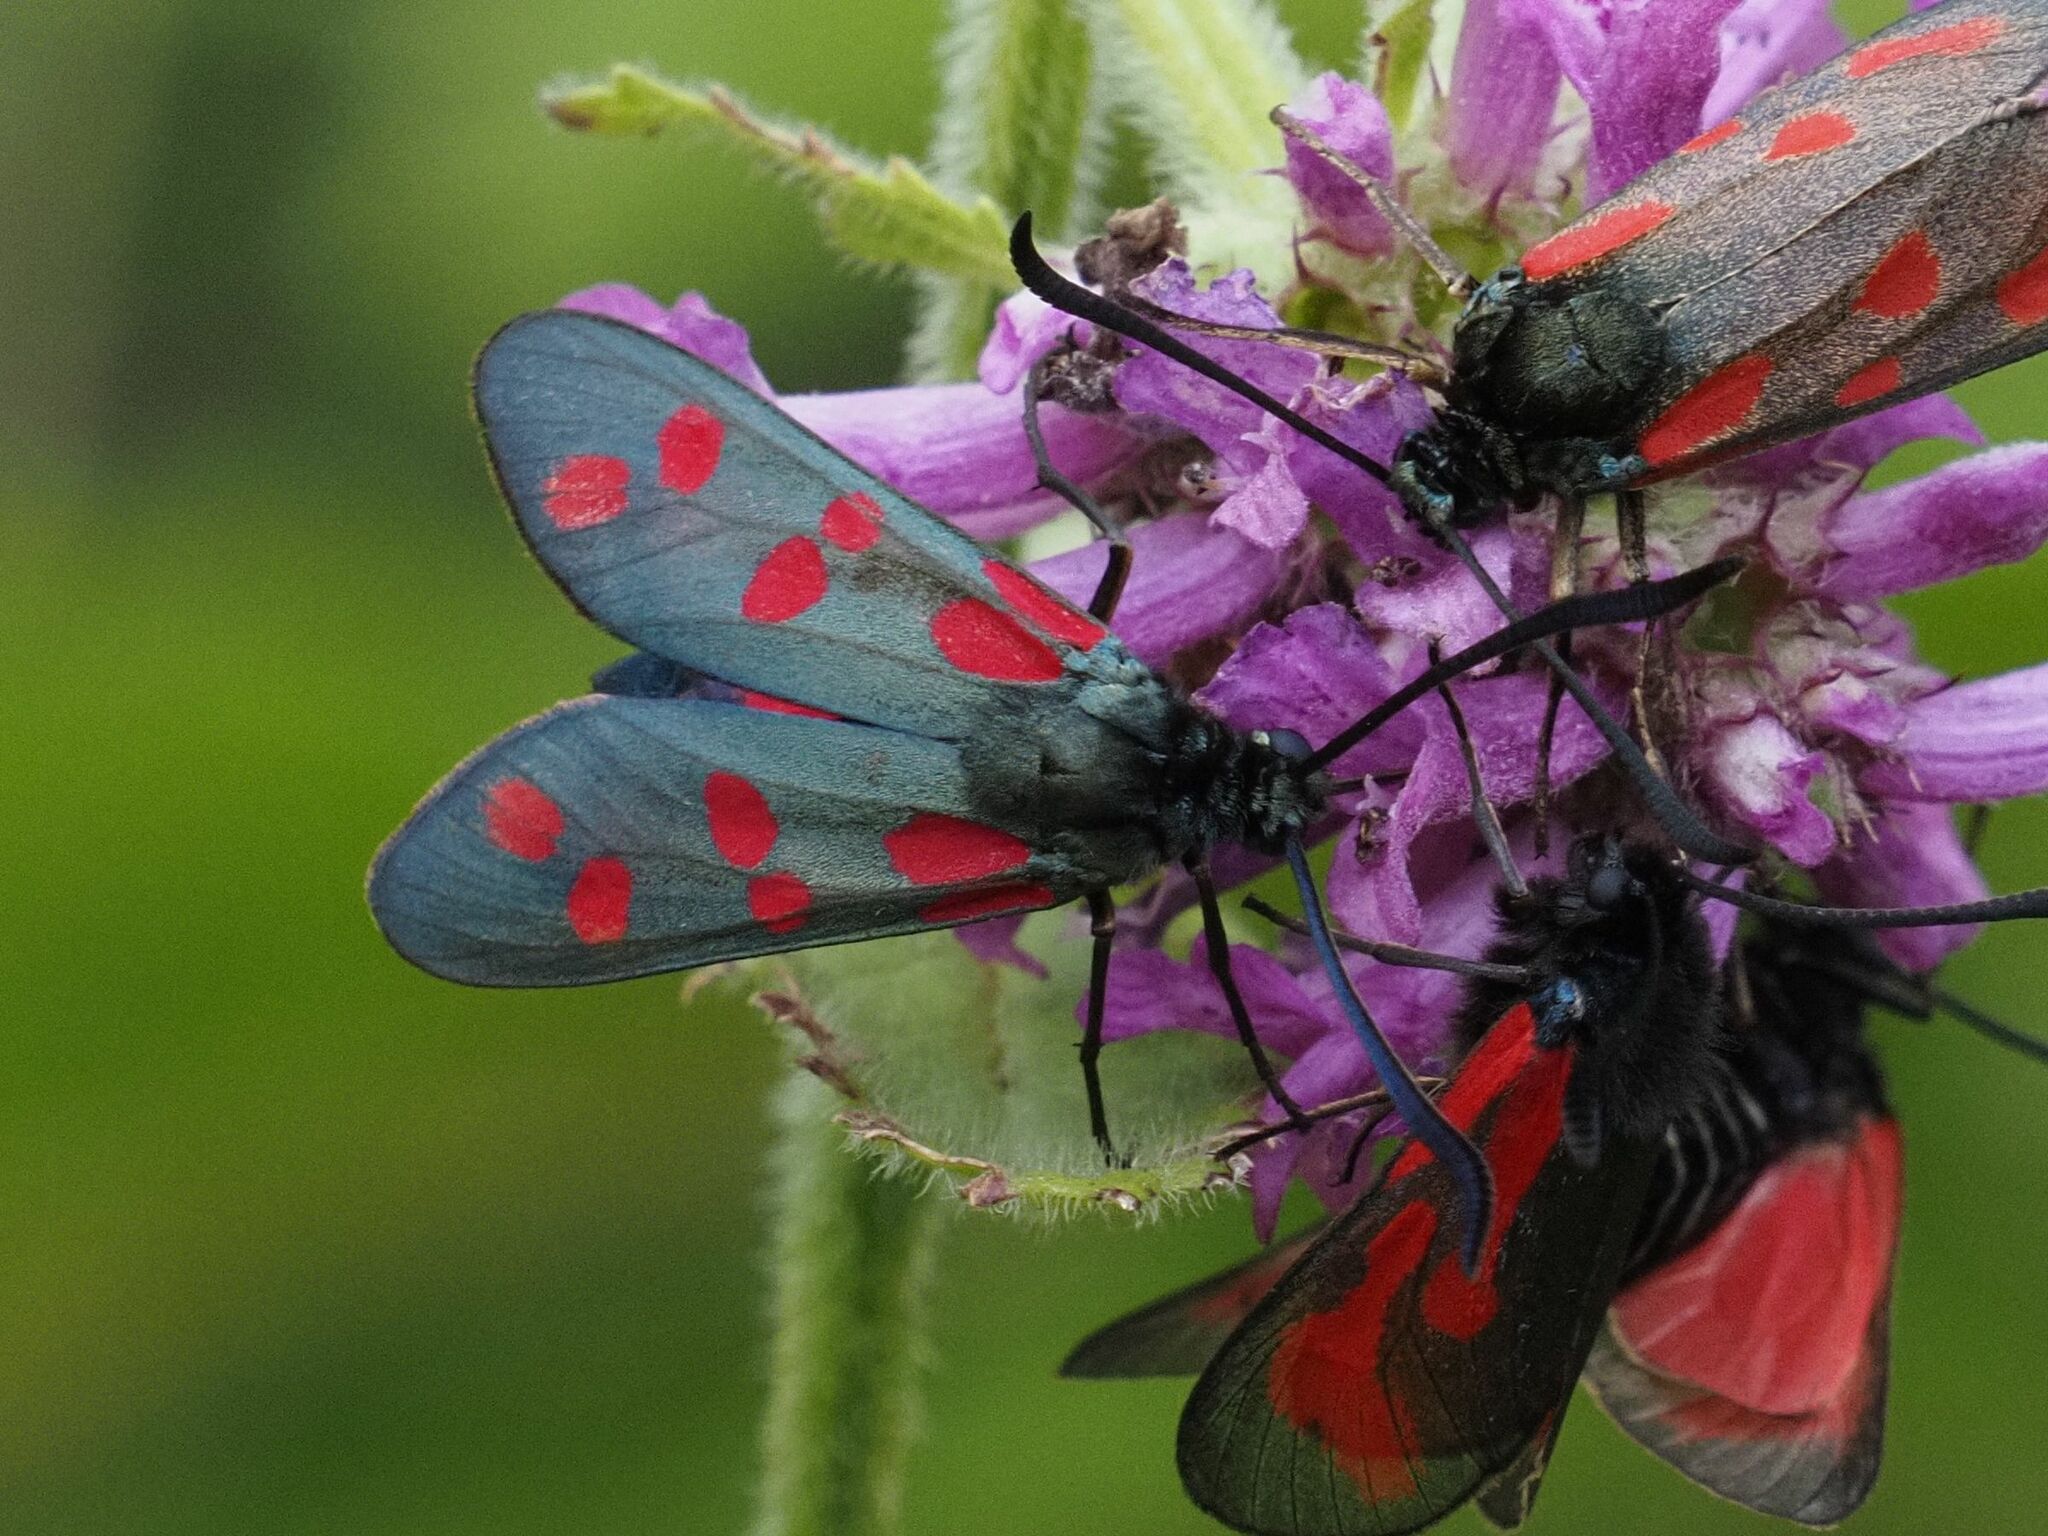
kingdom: Animalia
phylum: Arthropoda
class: Insecta
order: Lepidoptera
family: Zygaenidae
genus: Zygaena
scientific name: Zygaena filipendulae
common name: Six-spot burnet
